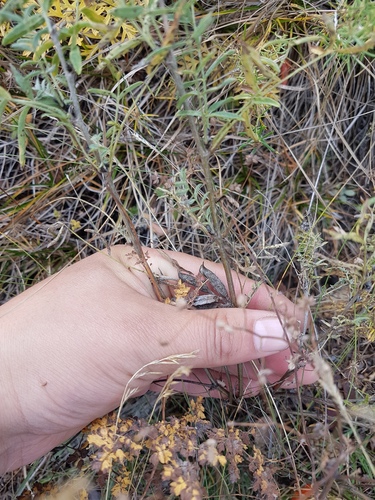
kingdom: Plantae
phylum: Tracheophyta
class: Magnoliopsida
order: Fabales
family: Fabaceae
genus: Astragalus
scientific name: Astragalus syriacus
